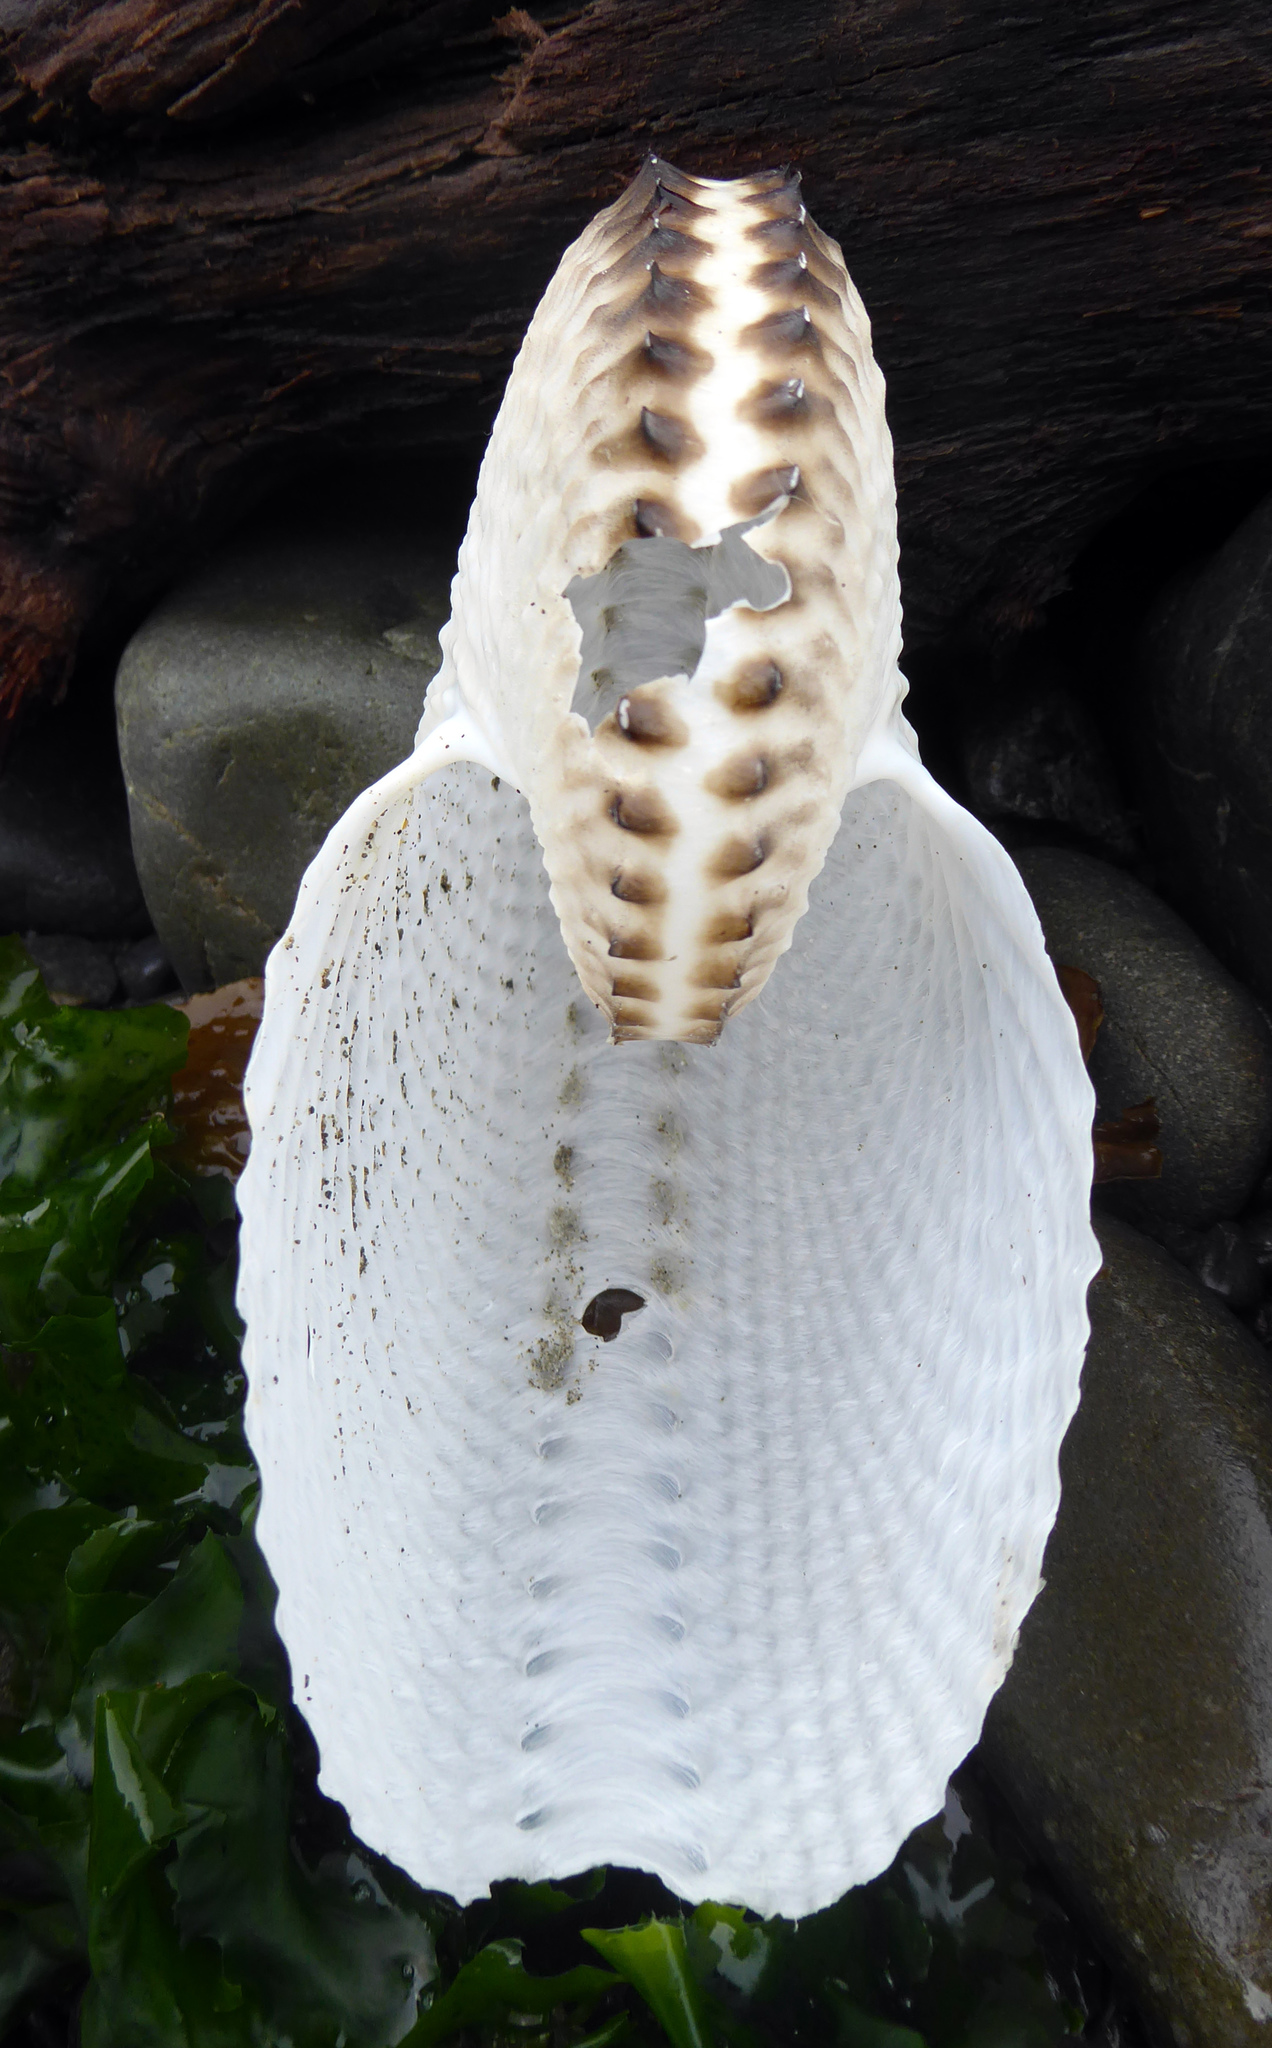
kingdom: Animalia
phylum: Mollusca
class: Cephalopoda
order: Octopoda
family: Argonautidae
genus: Argonauta
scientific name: Argonauta nodosus
